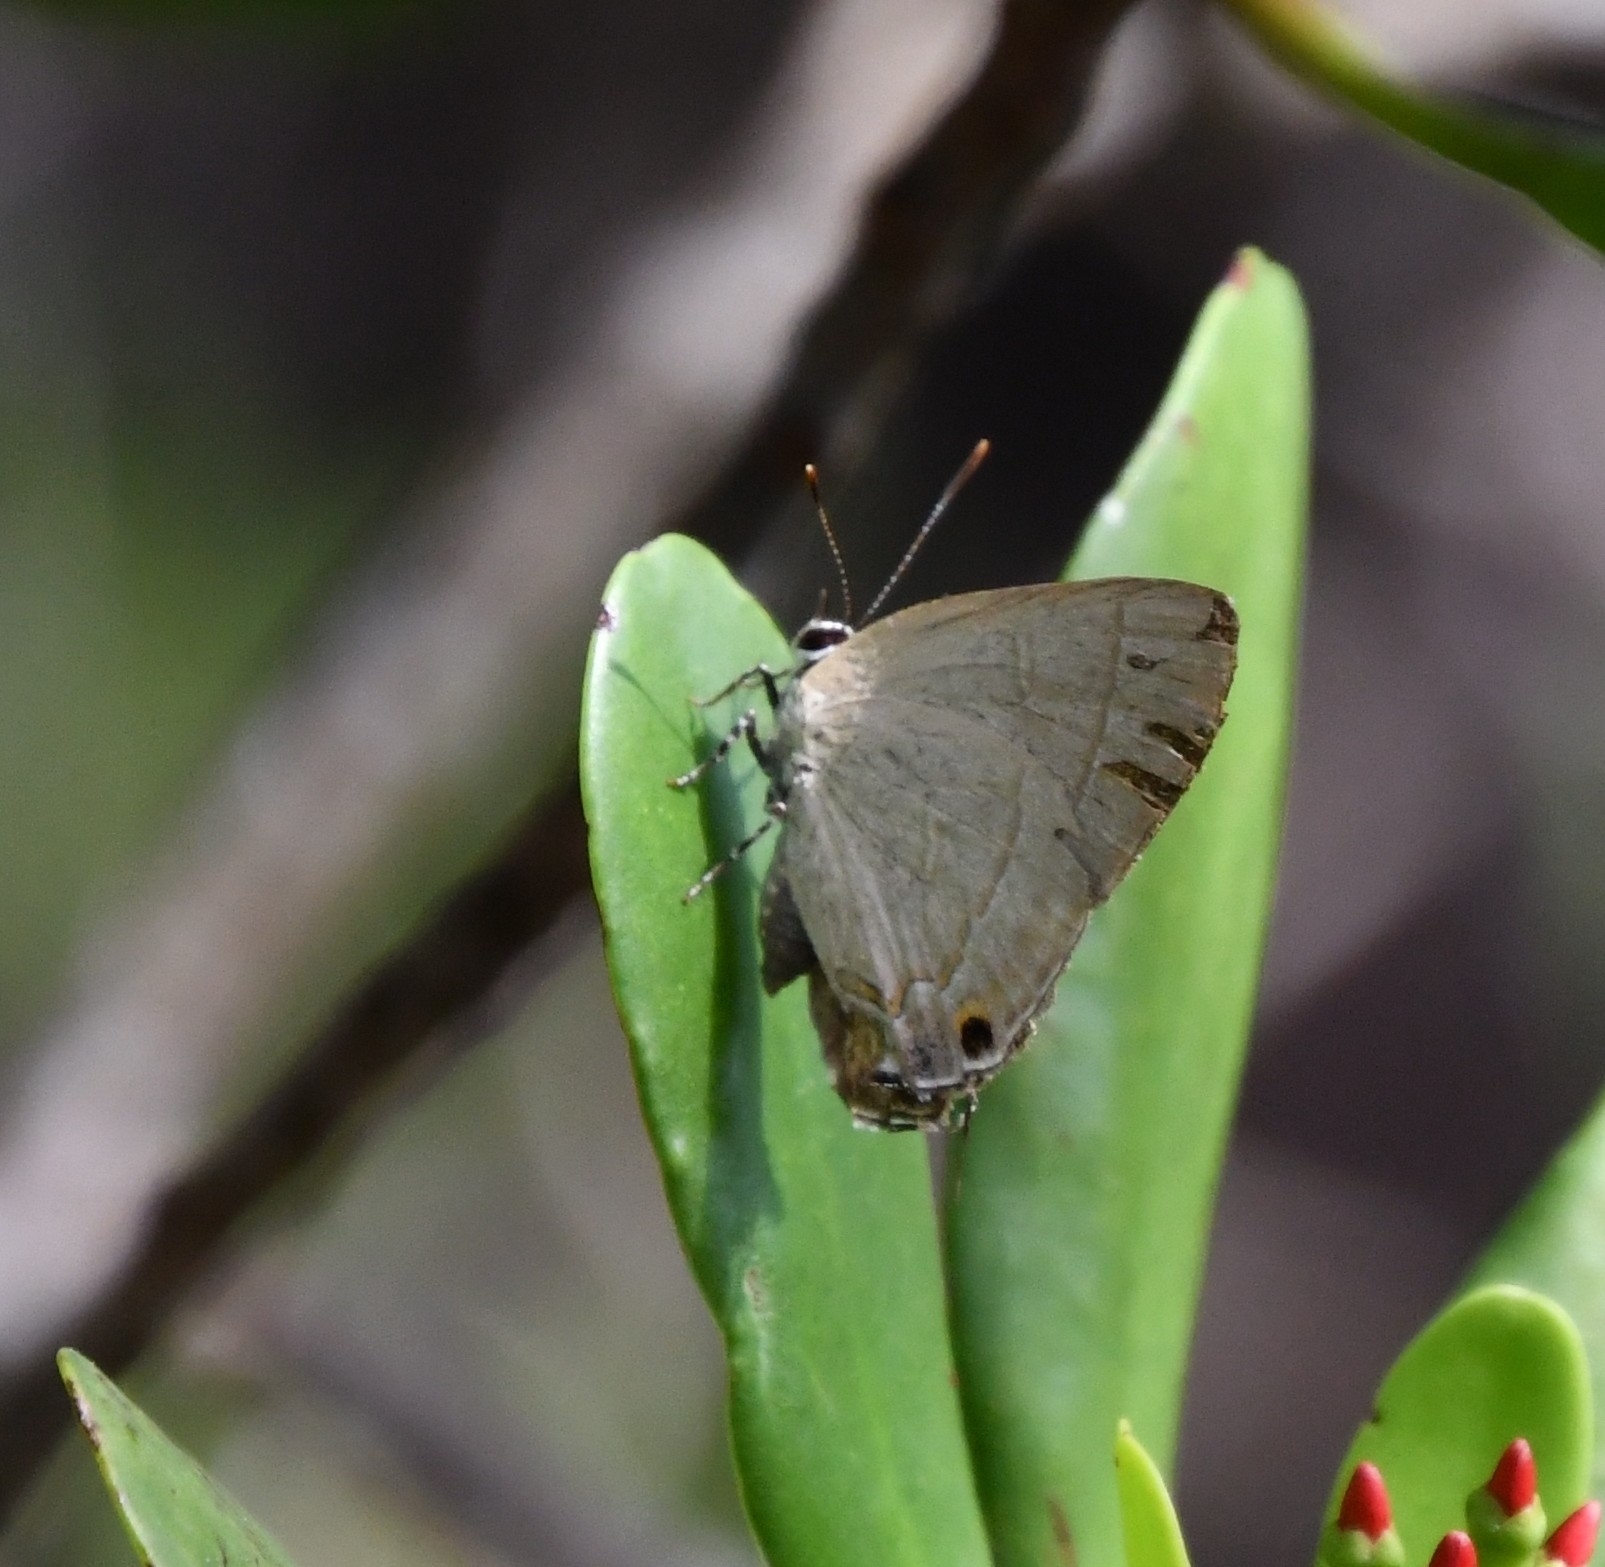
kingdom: Animalia
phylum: Arthropoda
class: Insecta
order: Lepidoptera
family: Lycaenidae
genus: Rapala
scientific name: Rapala dieneces
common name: Scarlet flash
